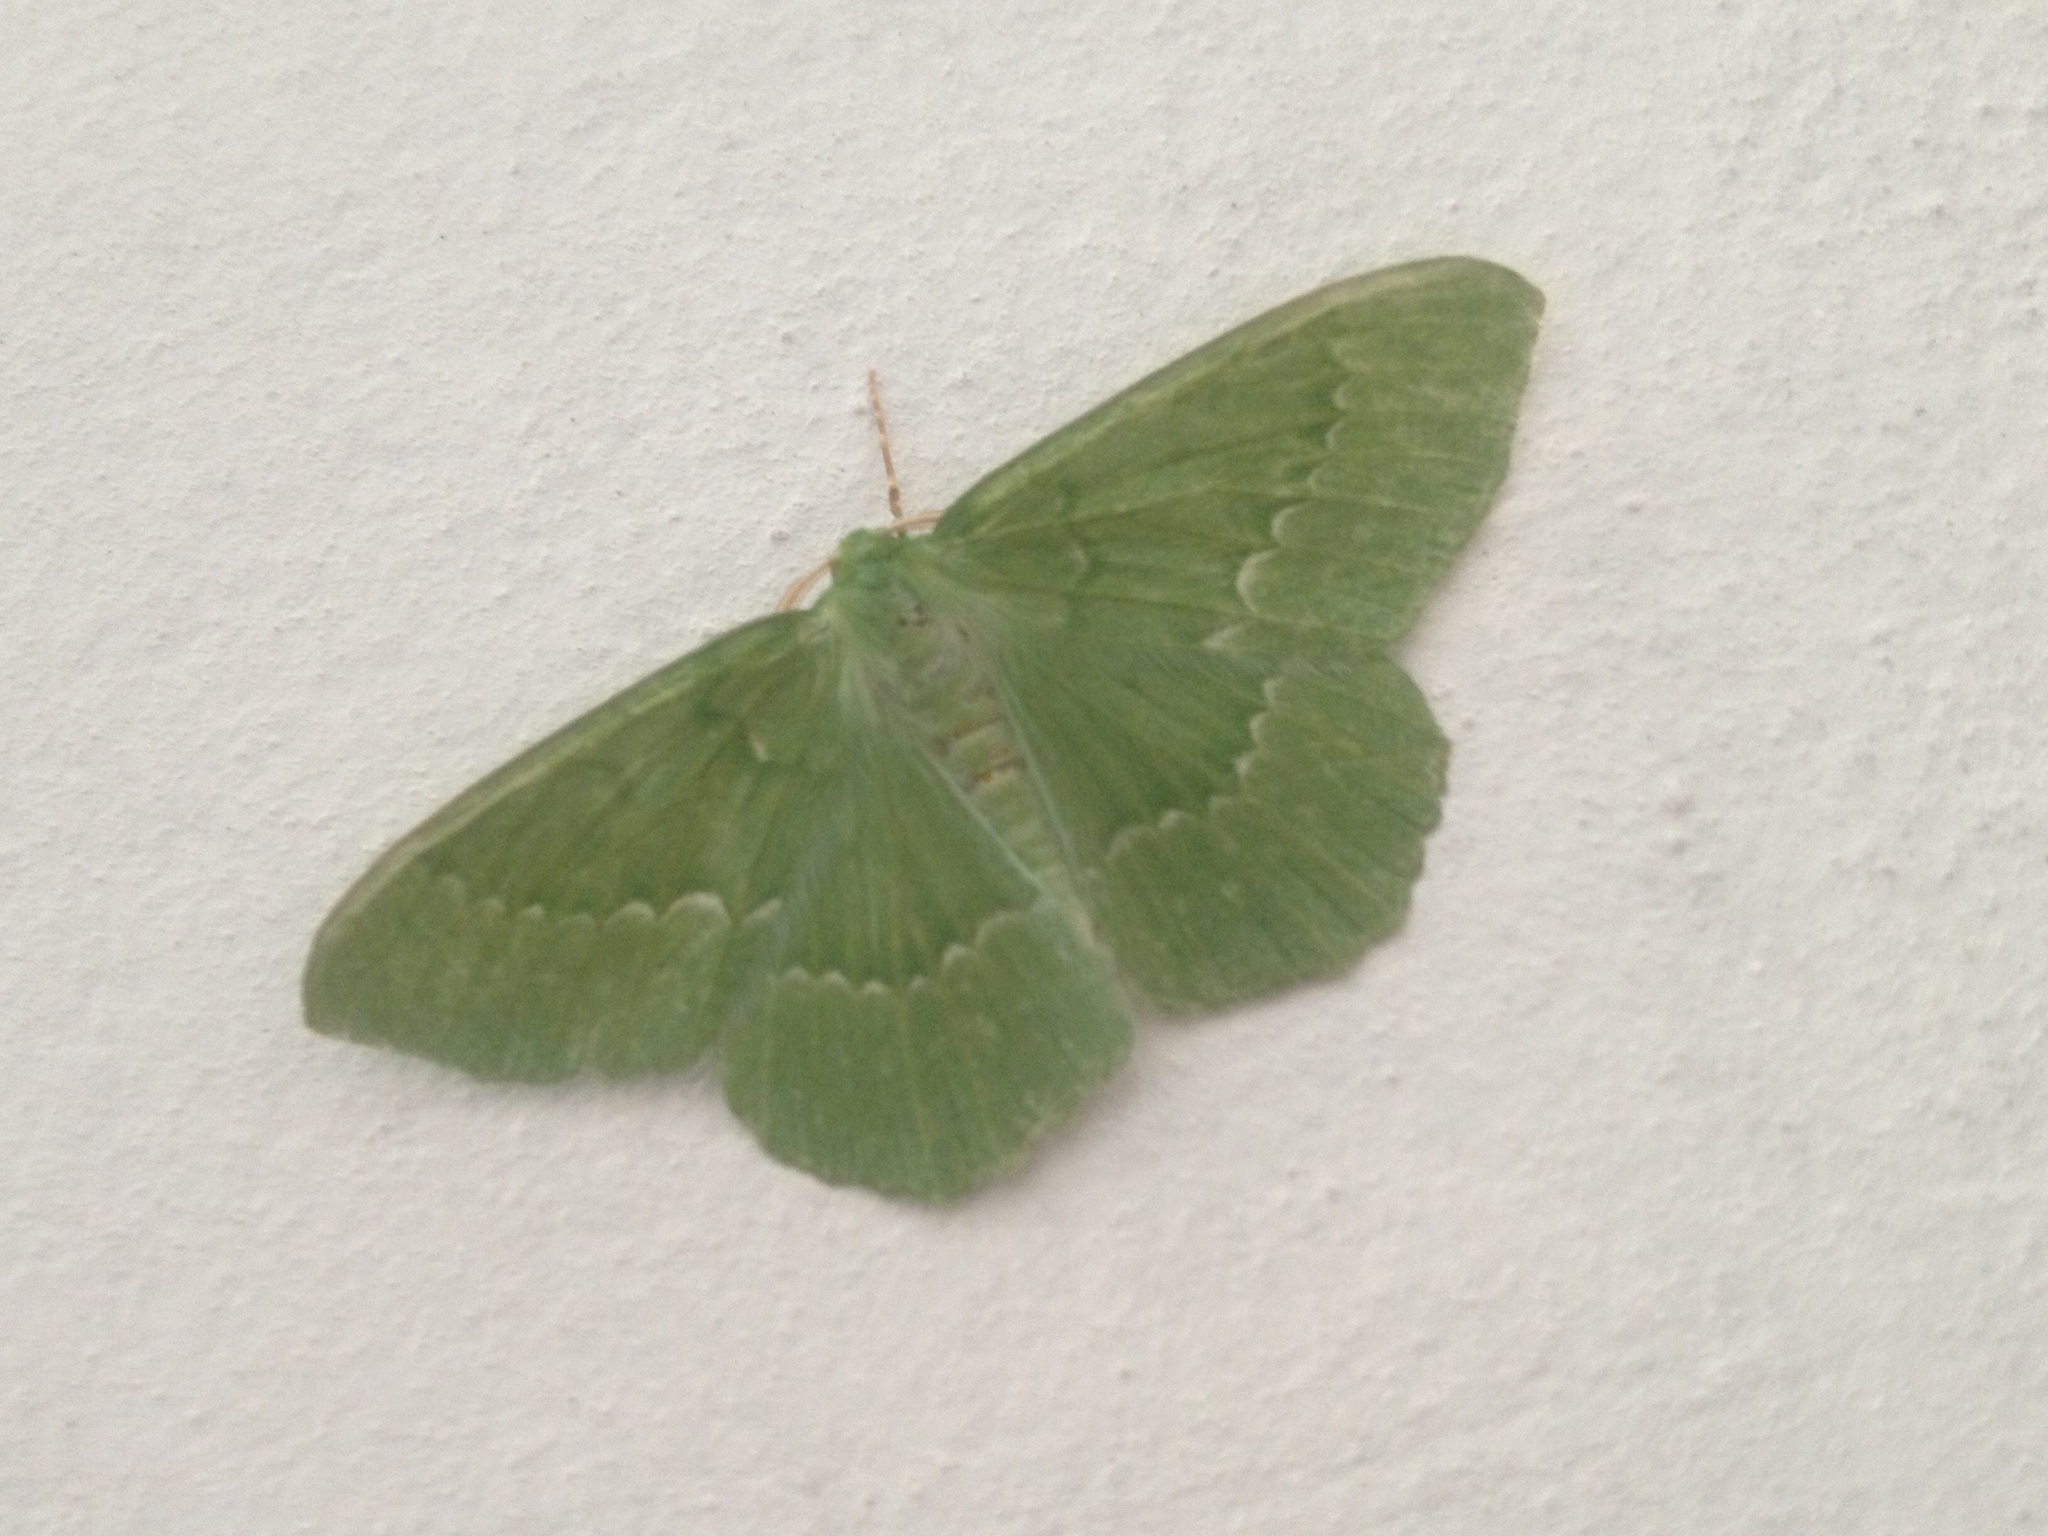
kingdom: Animalia
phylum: Arthropoda
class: Insecta
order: Lepidoptera
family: Geometridae
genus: Geometra
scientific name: Geometra papilionaria
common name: Large emerald
